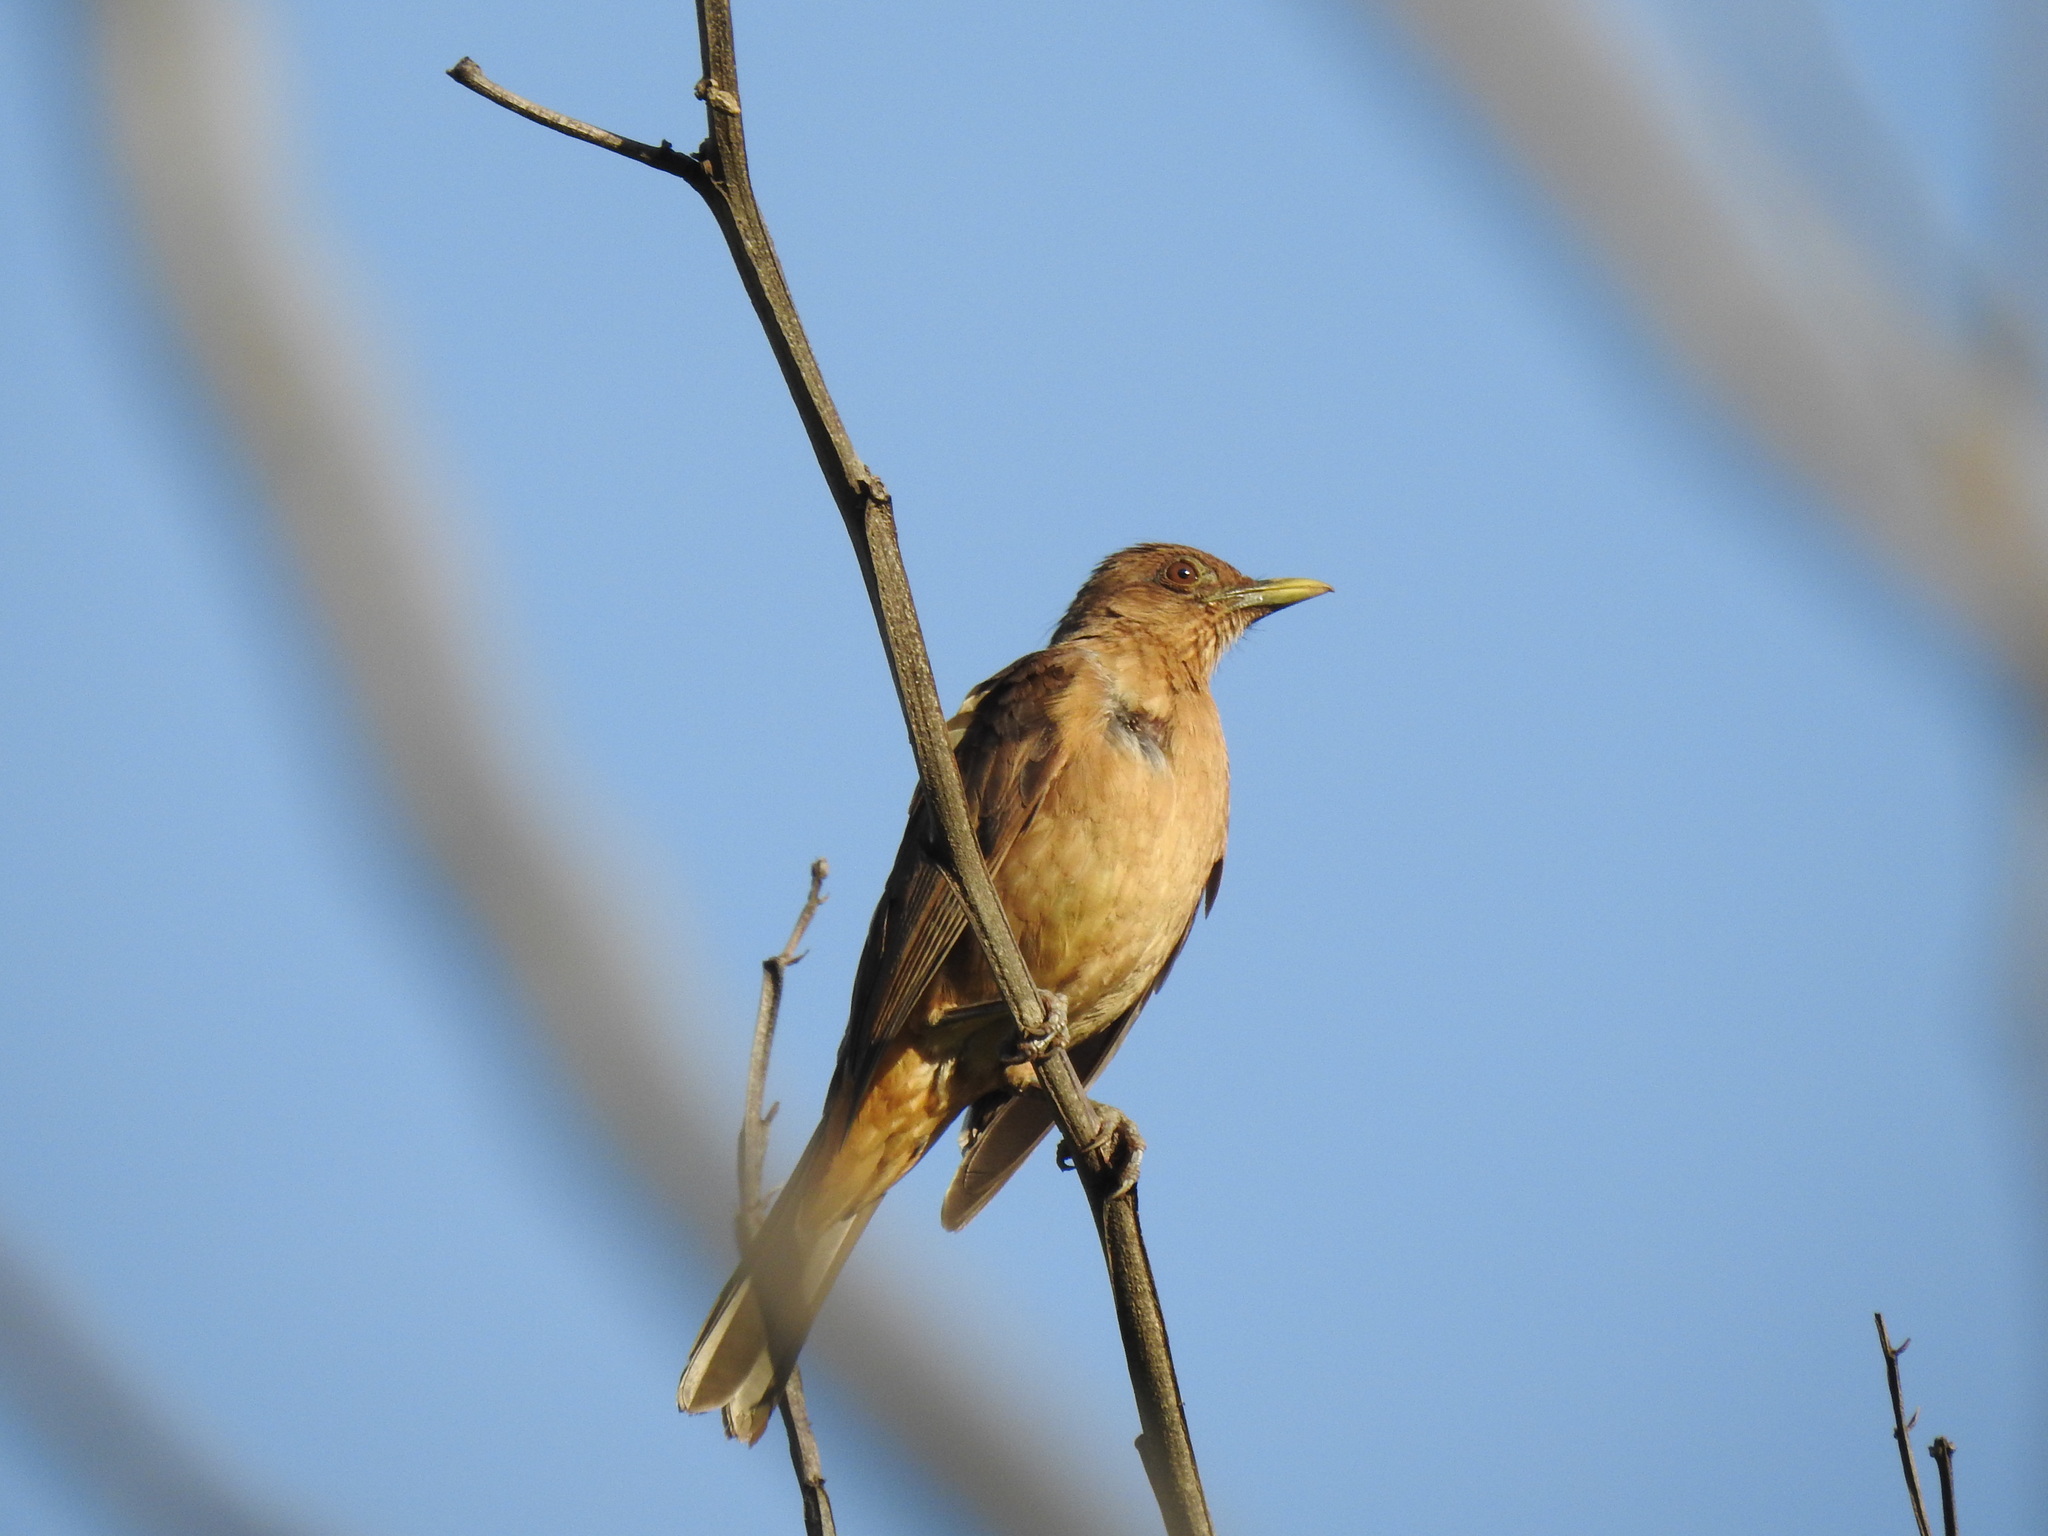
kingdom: Animalia
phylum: Chordata
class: Aves
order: Passeriformes
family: Turdidae
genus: Turdus
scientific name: Turdus grayi
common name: Clay-colored thrush
